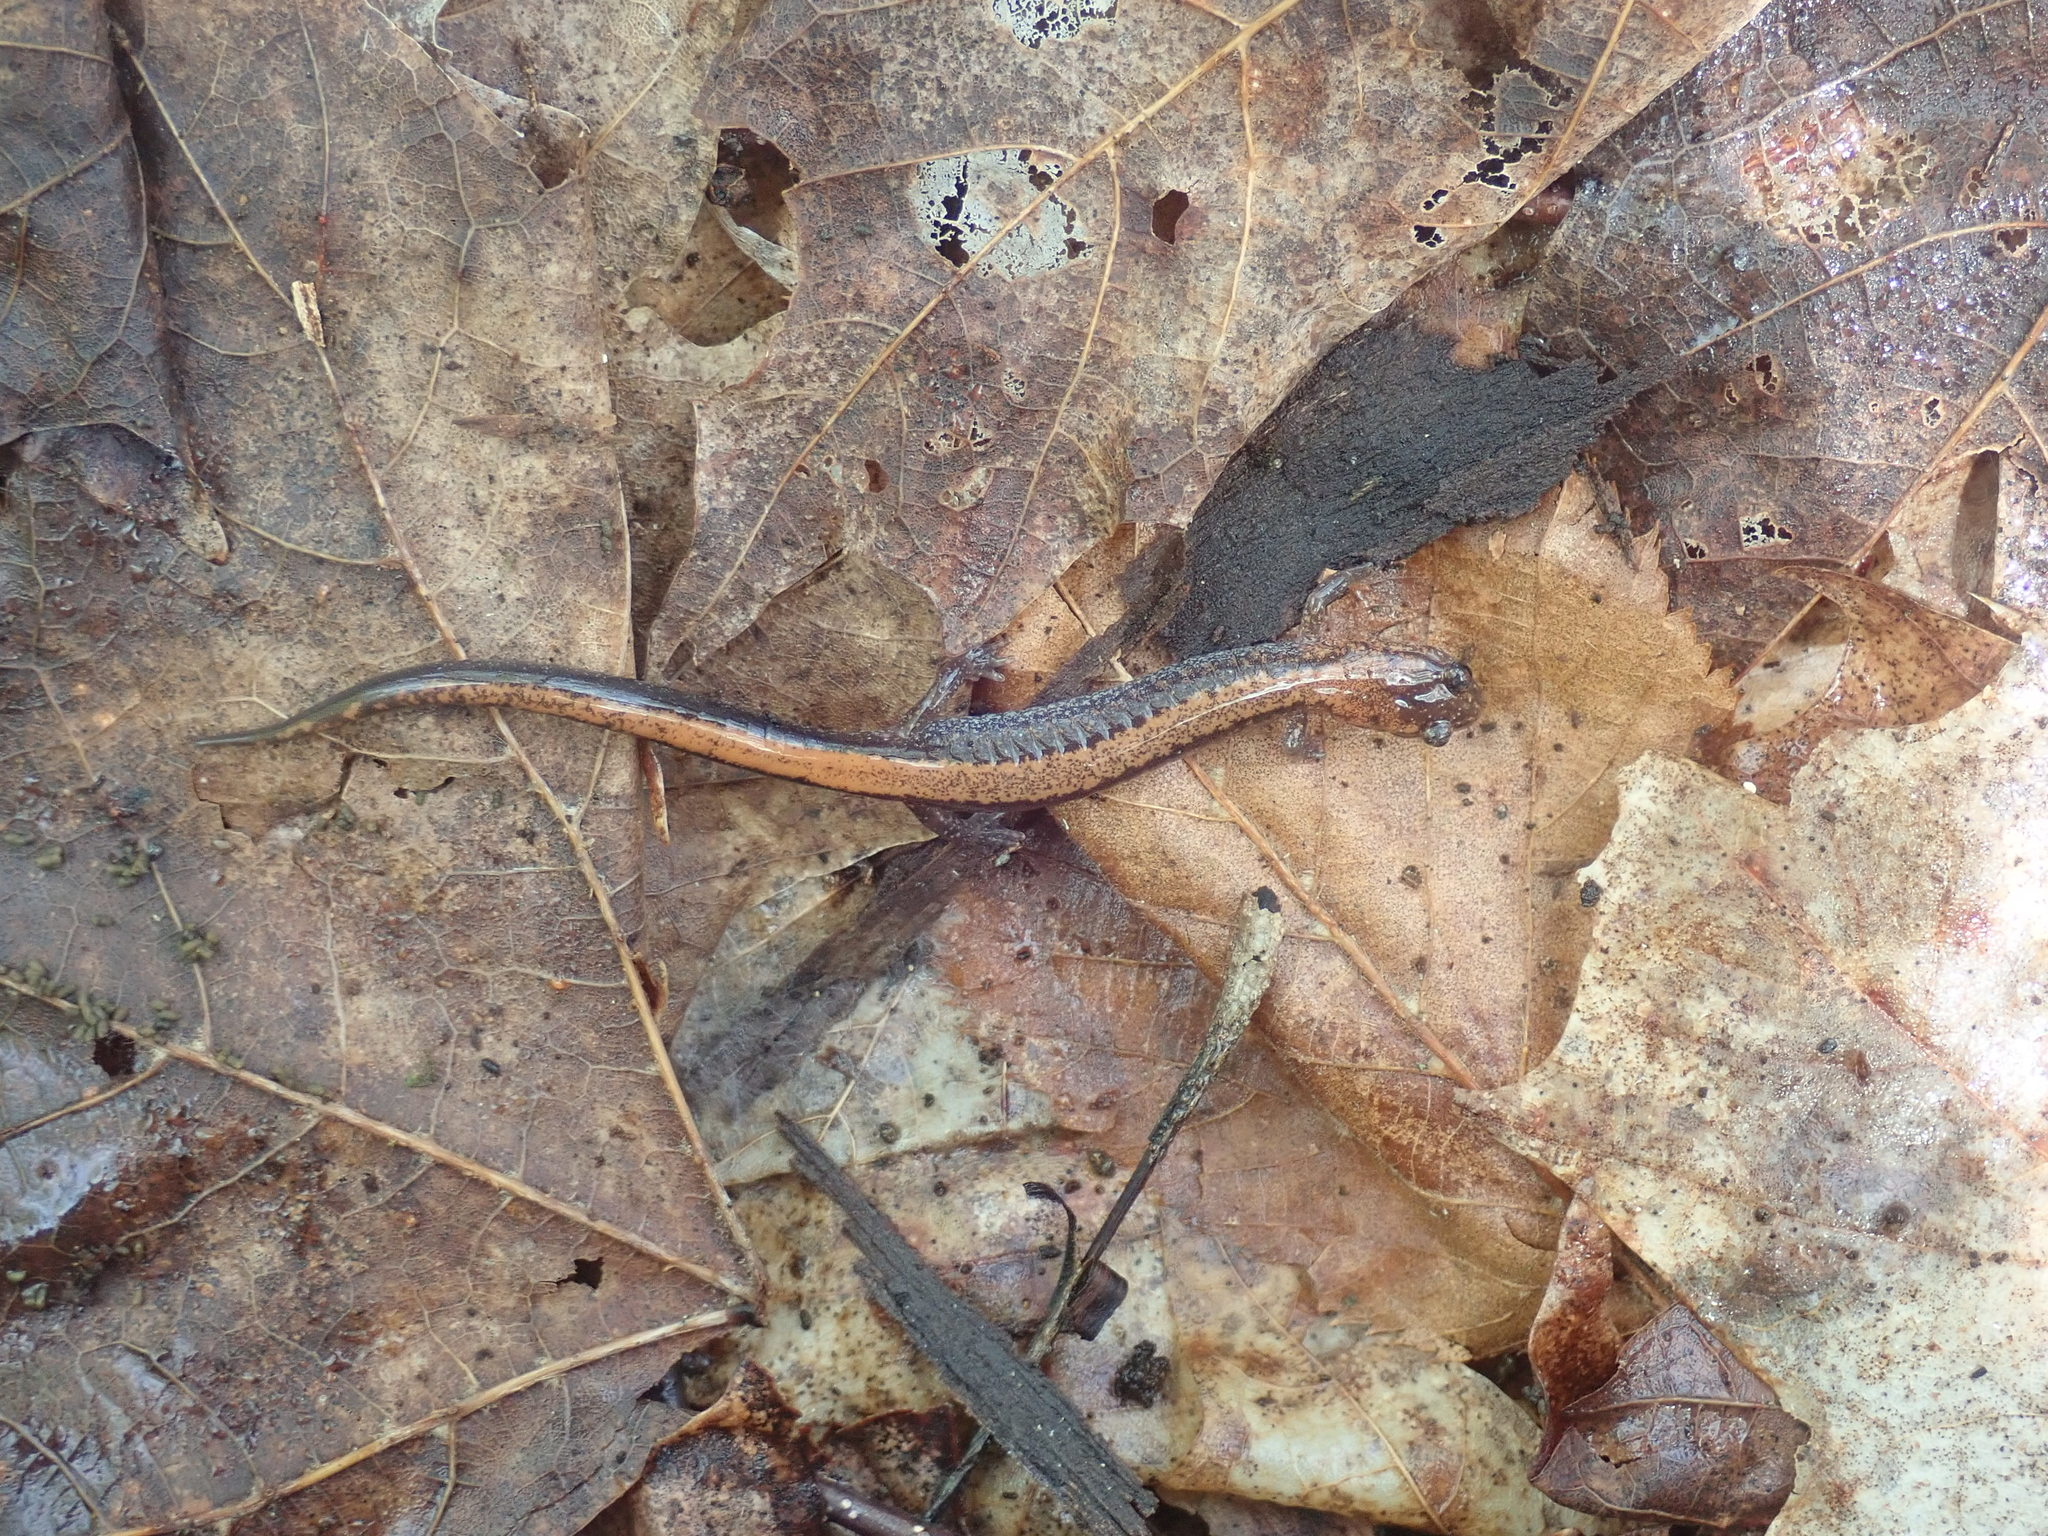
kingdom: Animalia
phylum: Chordata
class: Amphibia
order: Caudata
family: Plethodontidae
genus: Plethodon
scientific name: Plethodon cinereus
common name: Redback salamander
